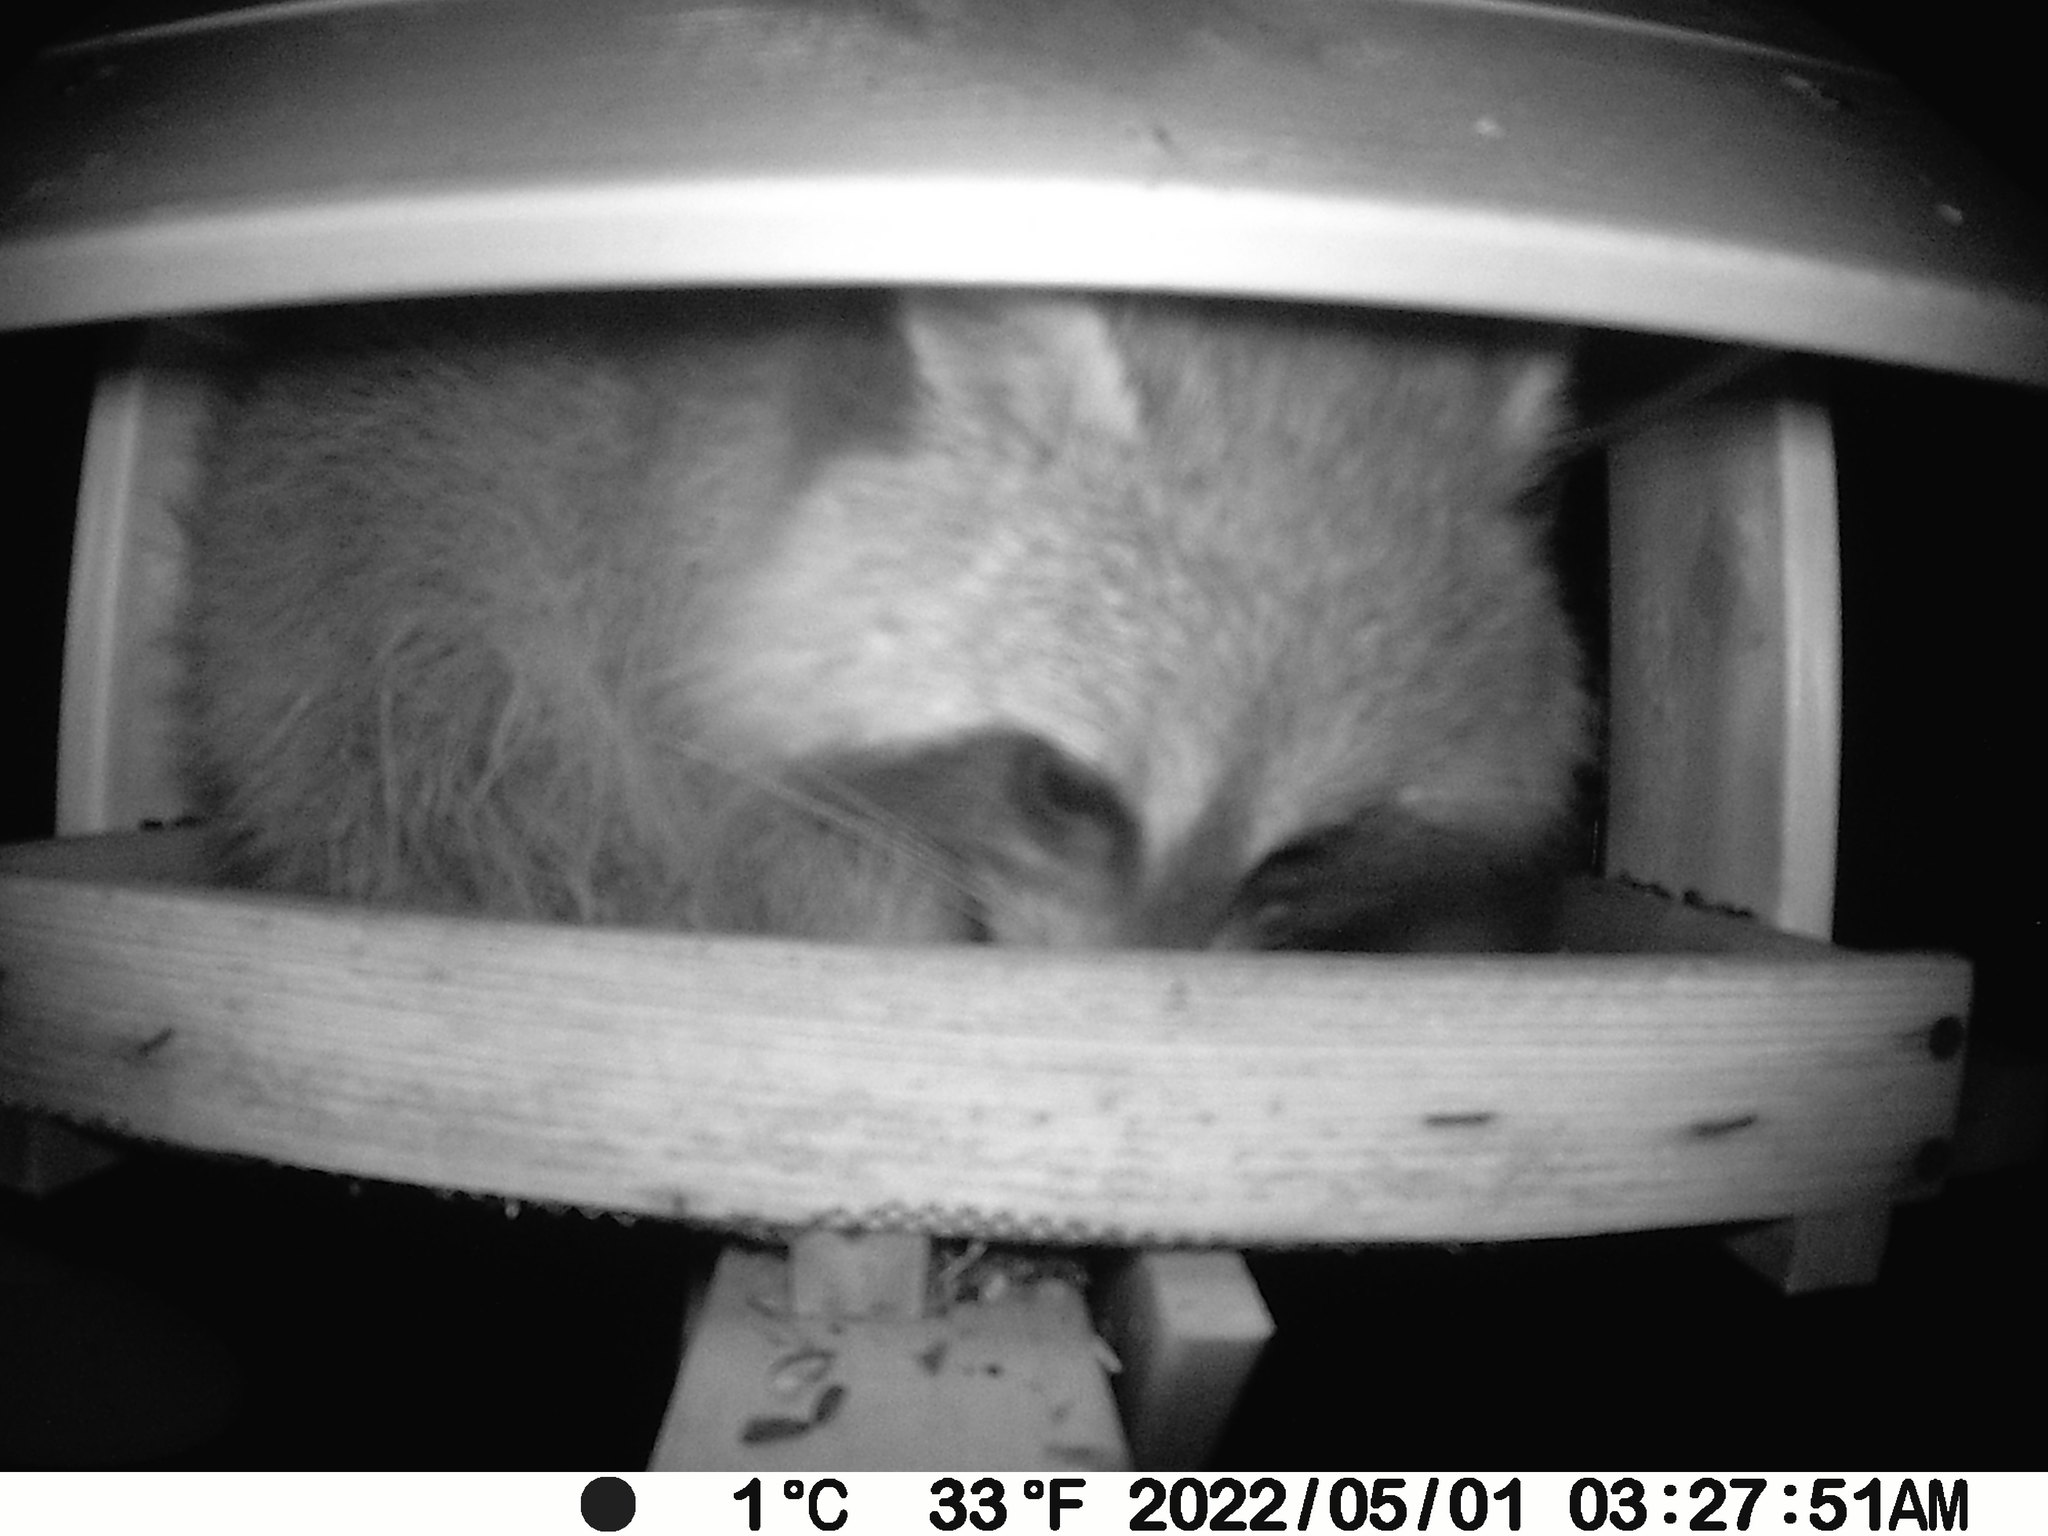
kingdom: Animalia
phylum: Chordata
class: Mammalia
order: Carnivora
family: Procyonidae
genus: Procyon
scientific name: Procyon lotor
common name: Raccoon
